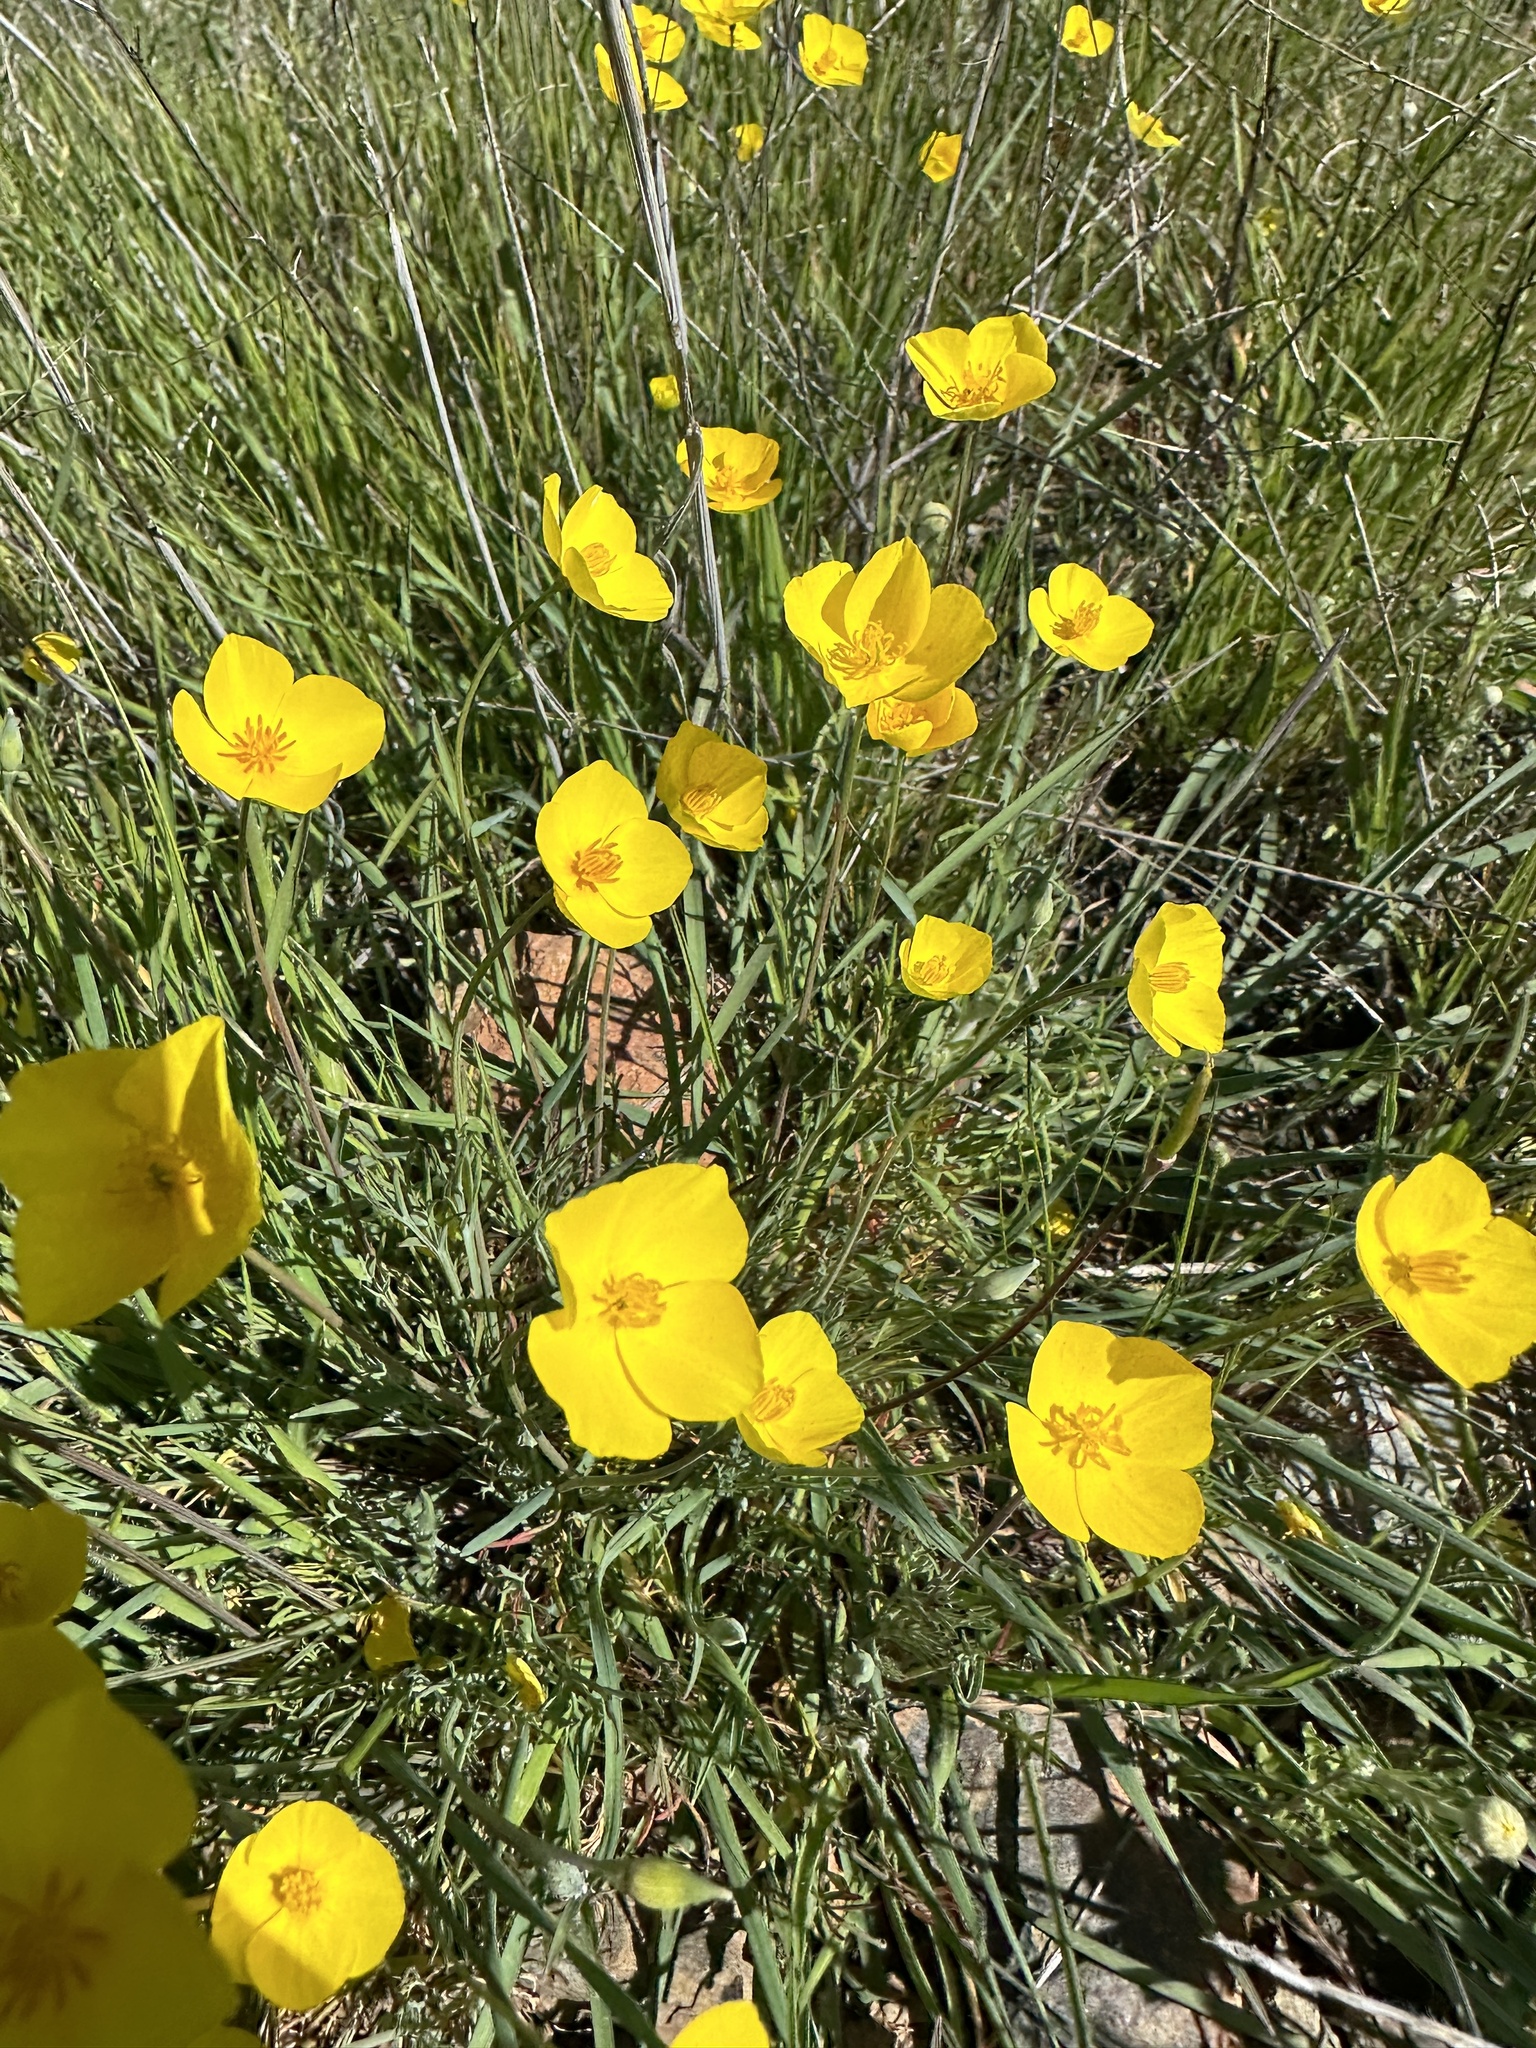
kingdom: Plantae
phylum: Tracheophyta
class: Magnoliopsida
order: Ranunculales
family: Papaveraceae
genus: Eschscholzia
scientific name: Eschscholzia lobbii
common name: Frying-pans
